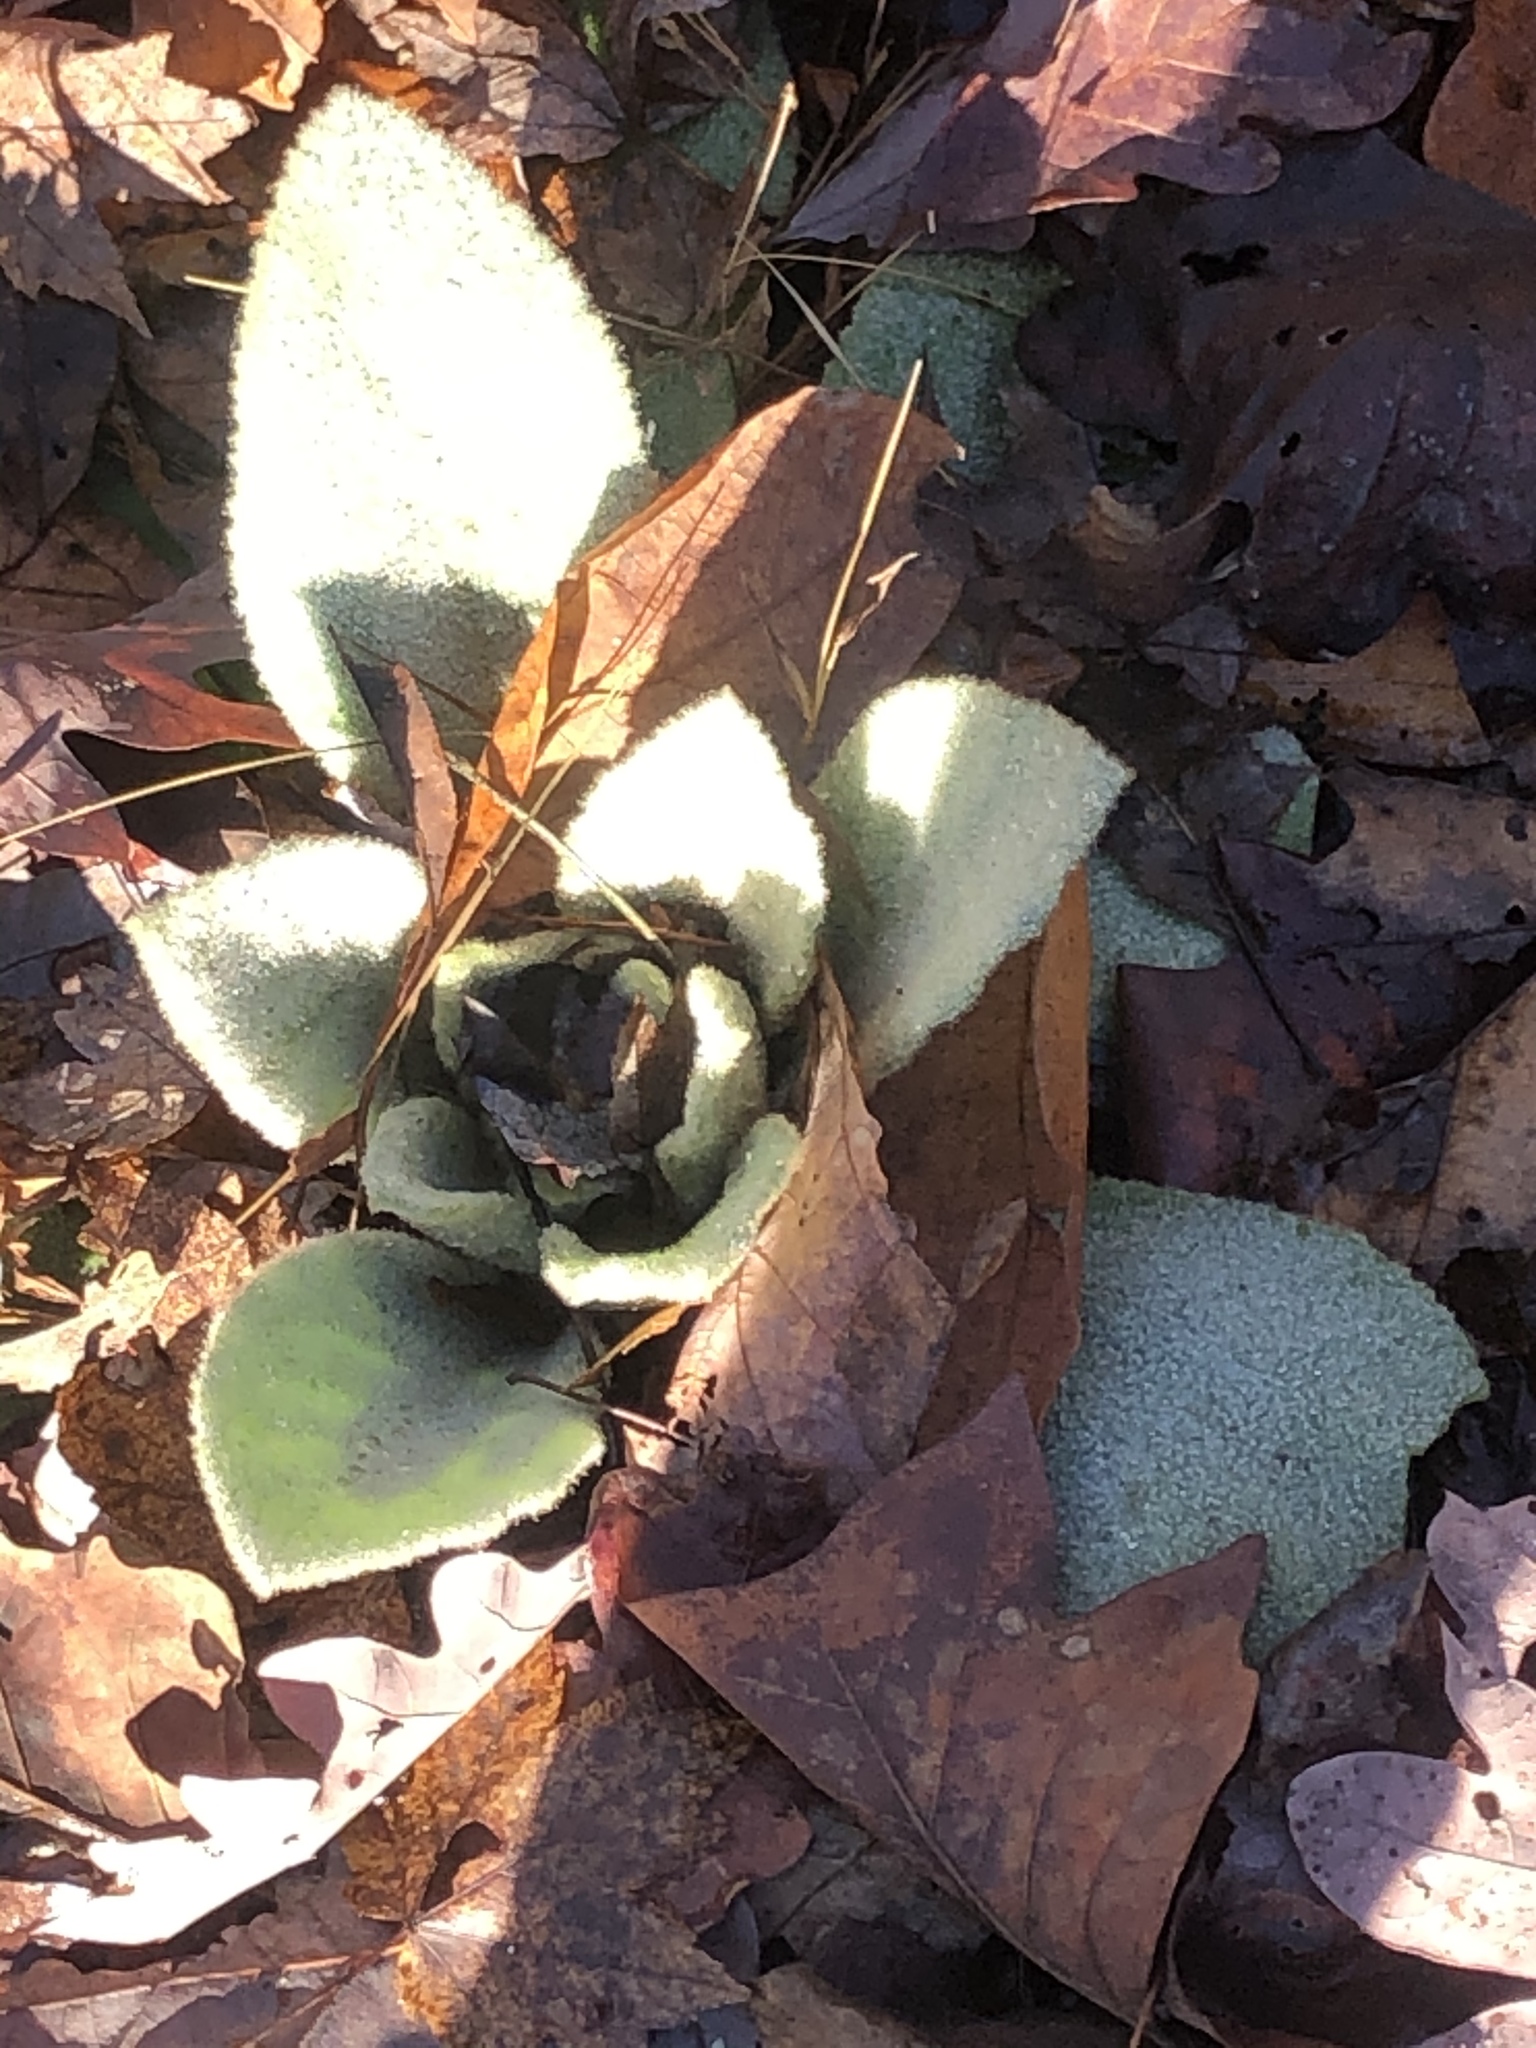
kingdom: Plantae
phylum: Tracheophyta
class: Magnoliopsida
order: Lamiales
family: Scrophulariaceae
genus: Verbascum
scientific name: Verbascum thapsus
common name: Common mullein
